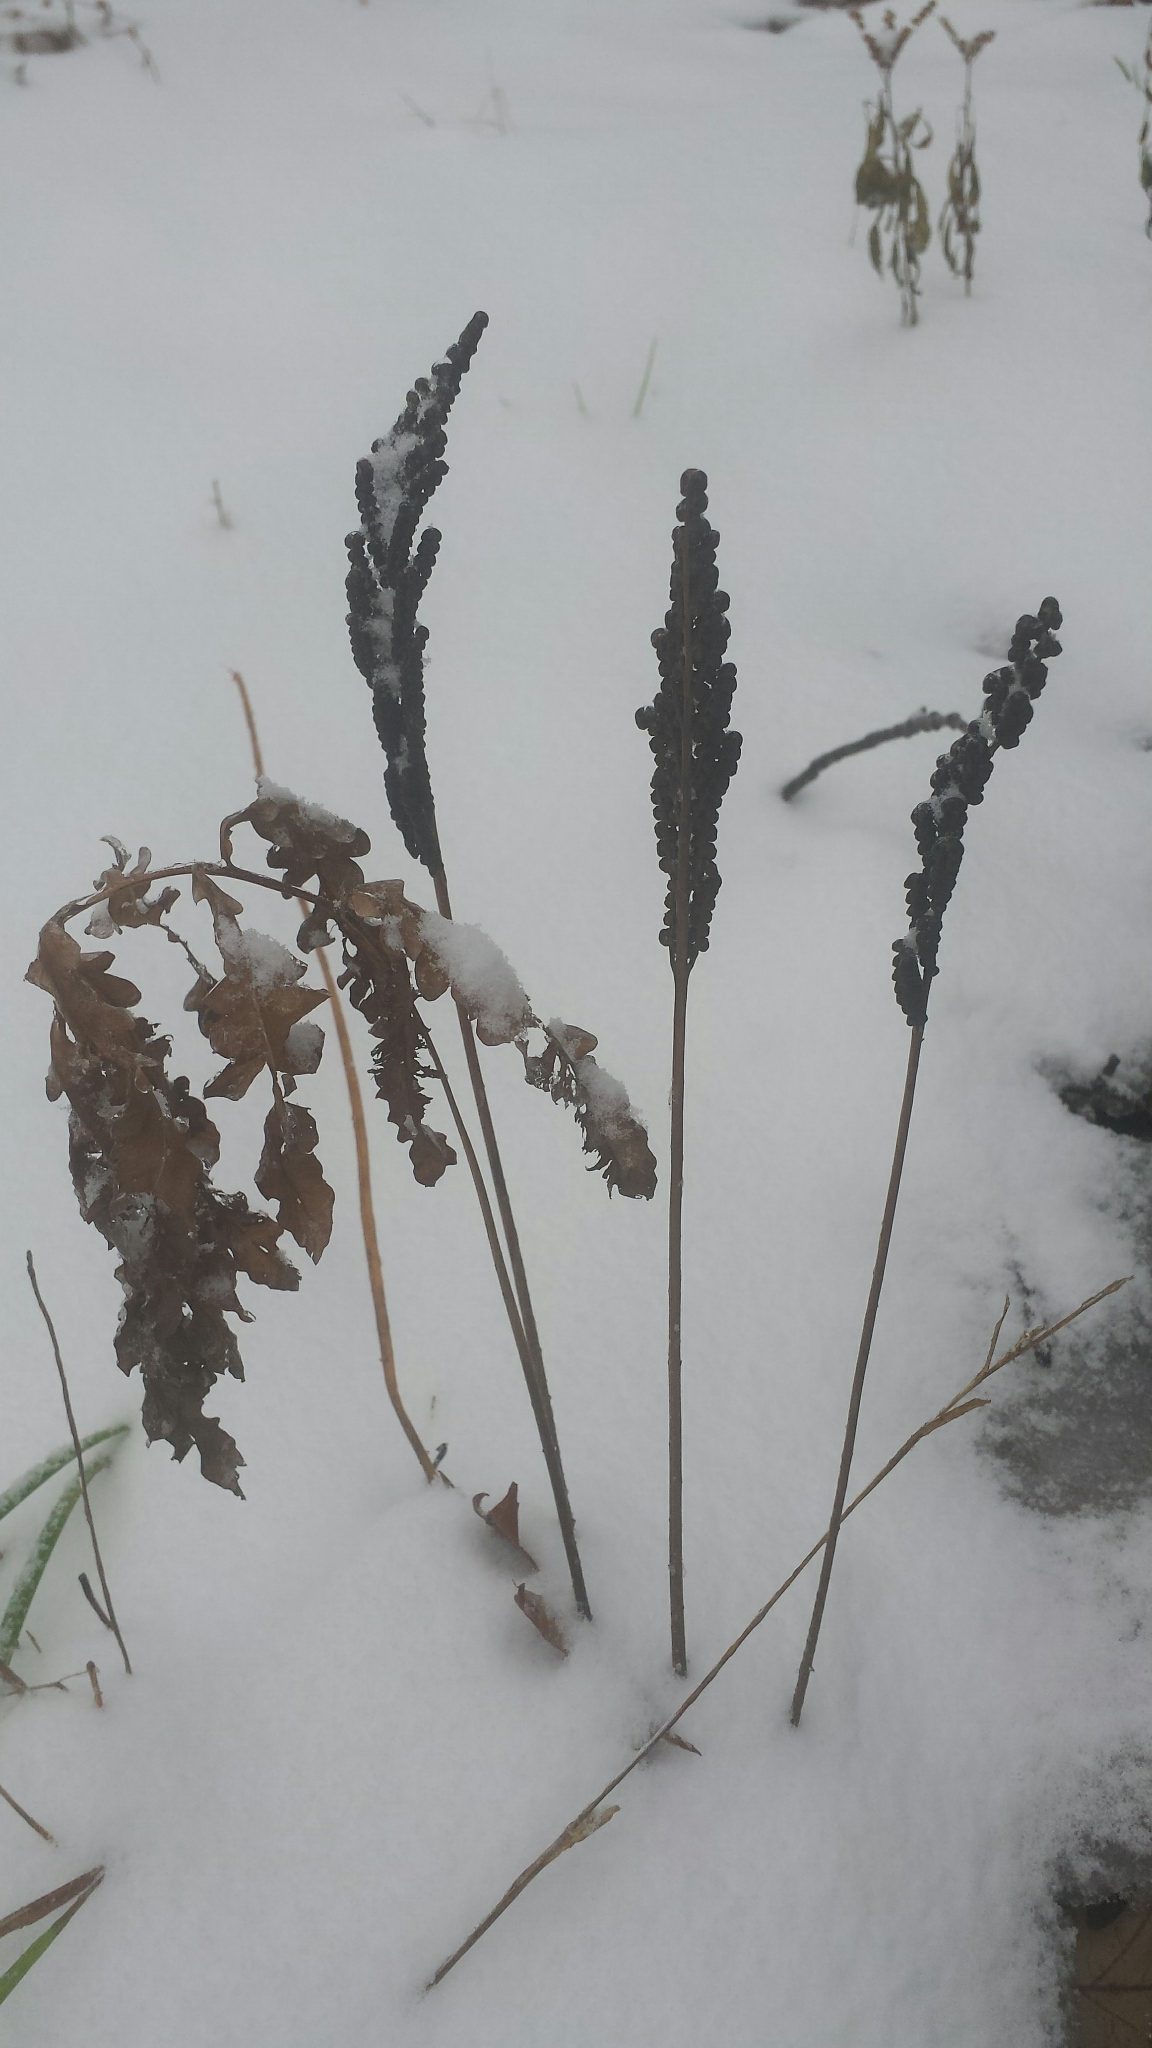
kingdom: Plantae
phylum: Tracheophyta
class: Polypodiopsida
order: Polypodiales
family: Onocleaceae
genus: Onoclea
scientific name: Onoclea sensibilis
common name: Sensitive fern
